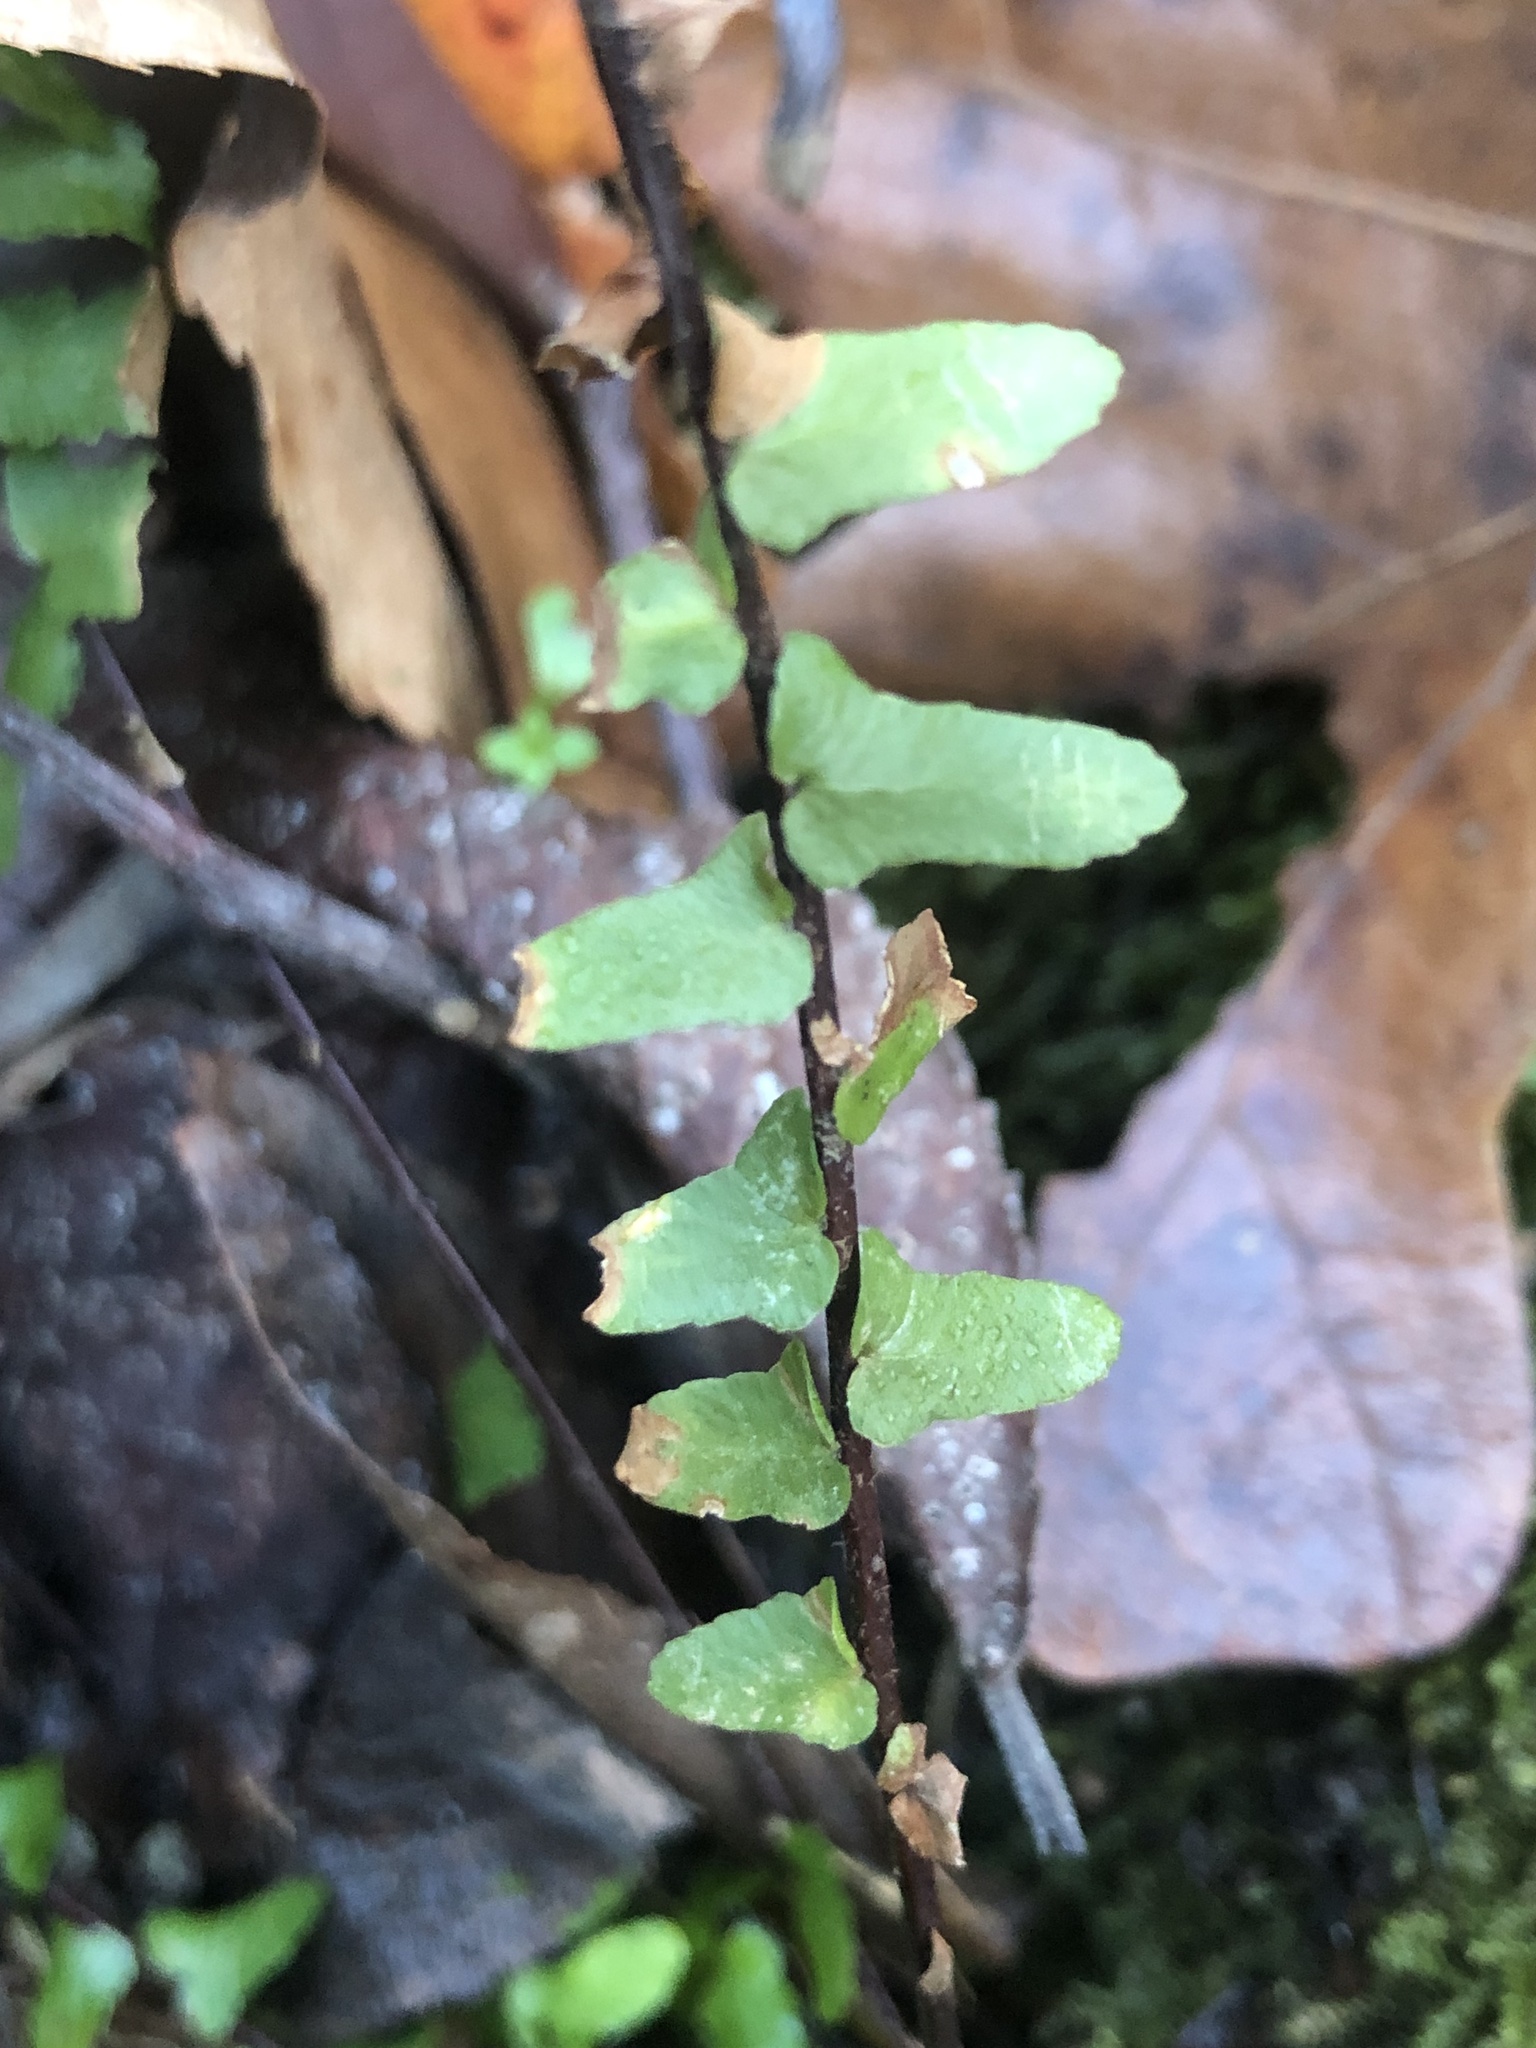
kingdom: Plantae
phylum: Tracheophyta
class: Polypodiopsida
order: Polypodiales
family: Aspleniaceae
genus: Asplenium
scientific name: Asplenium platyneuron
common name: Ebony spleenwort
